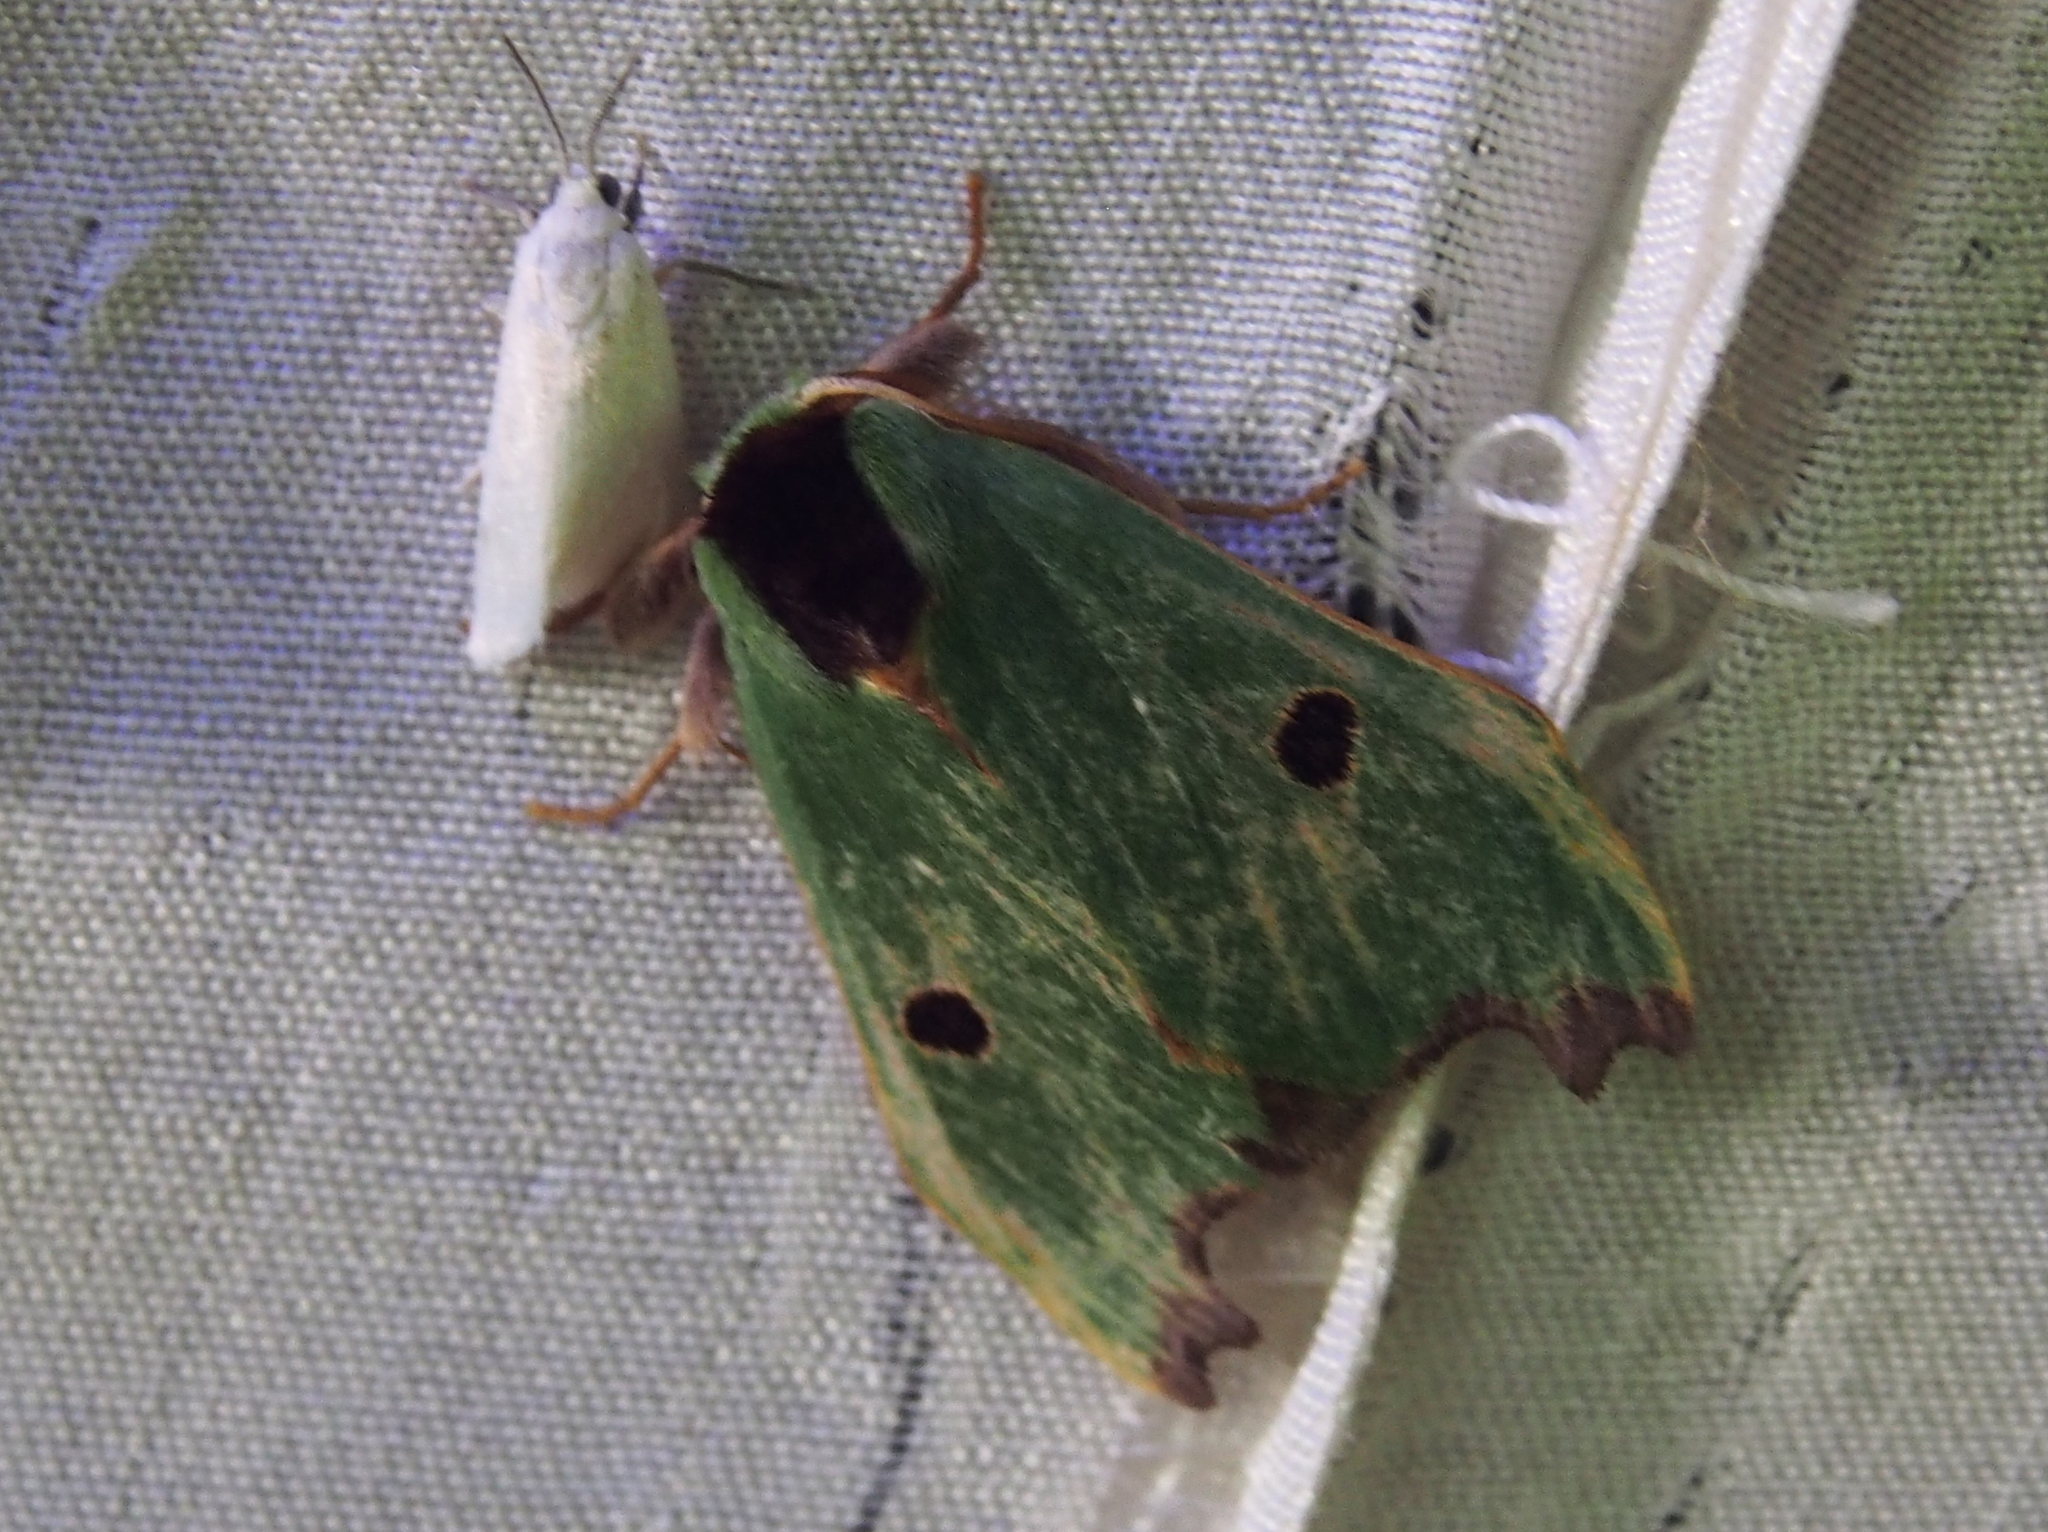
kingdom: Animalia
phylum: Arthropoda
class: Insecta
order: Lepidoptera
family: Notodontidae
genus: Rosema
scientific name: Rosema deolis
